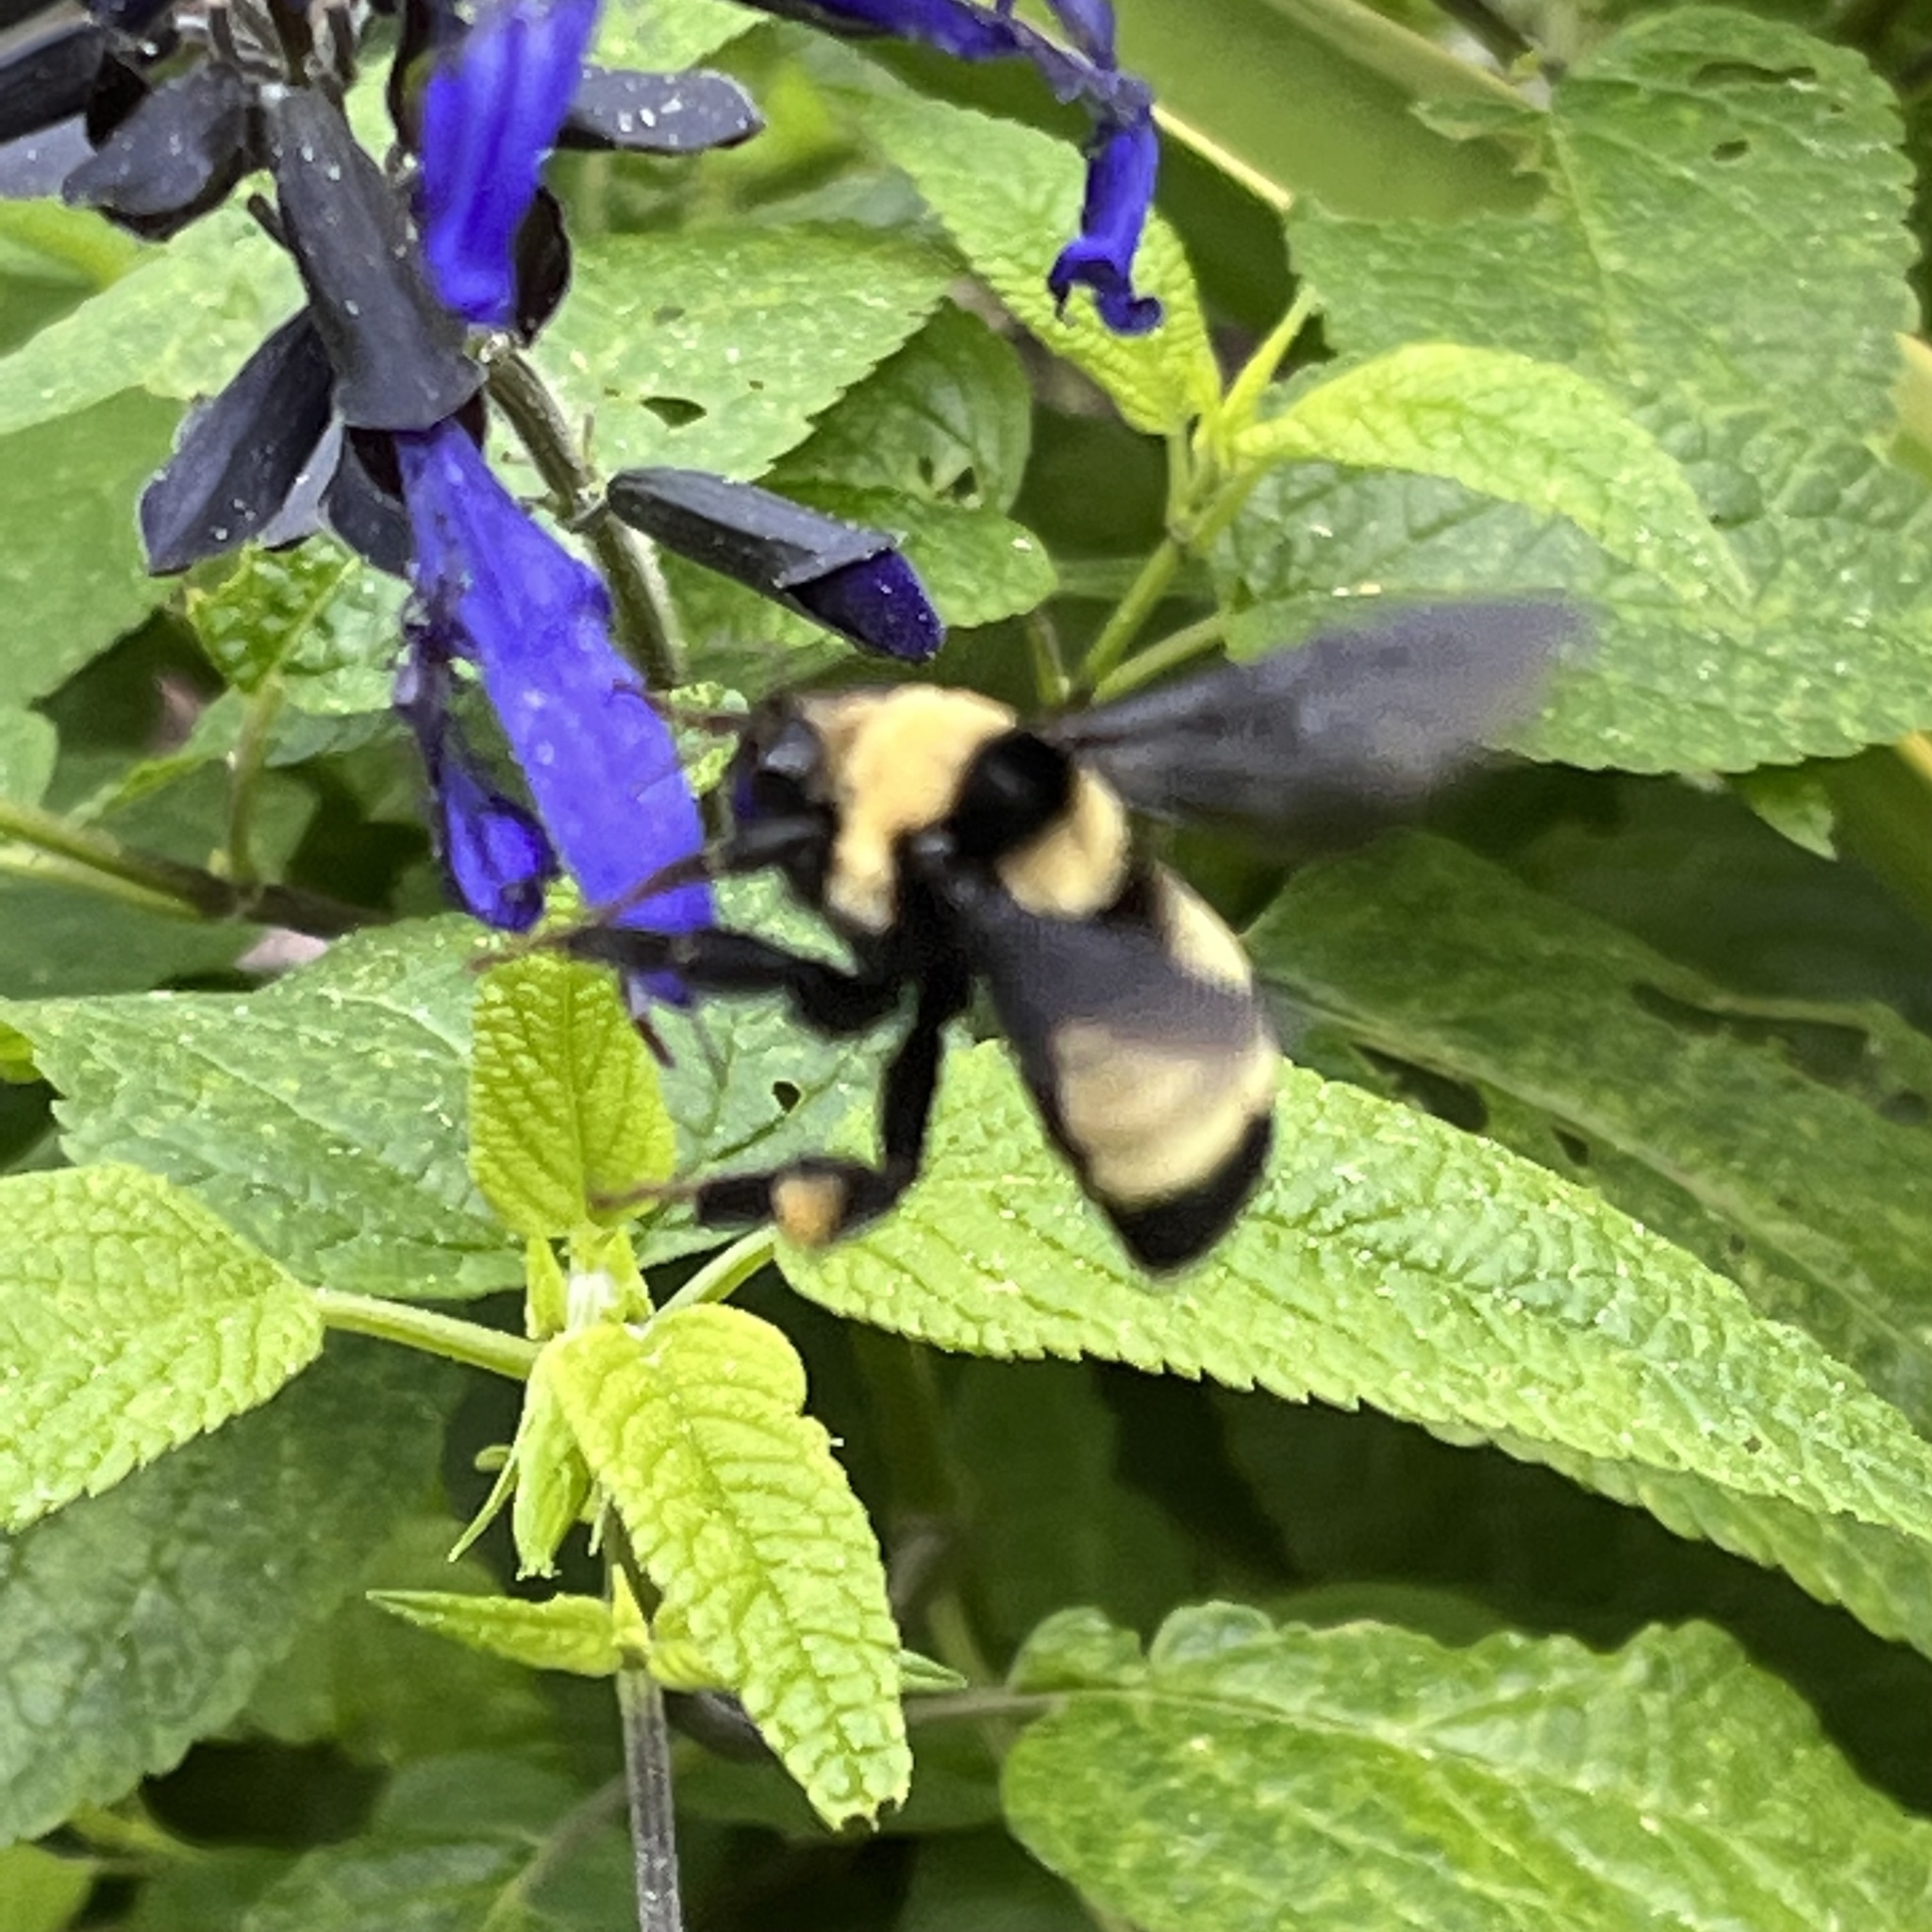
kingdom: Animalia
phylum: Arthropoda
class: Insecta
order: Hymenoptera
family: Apidae
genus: Bombus
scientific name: Bombus auricomus
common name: Black and gold bumble bee
